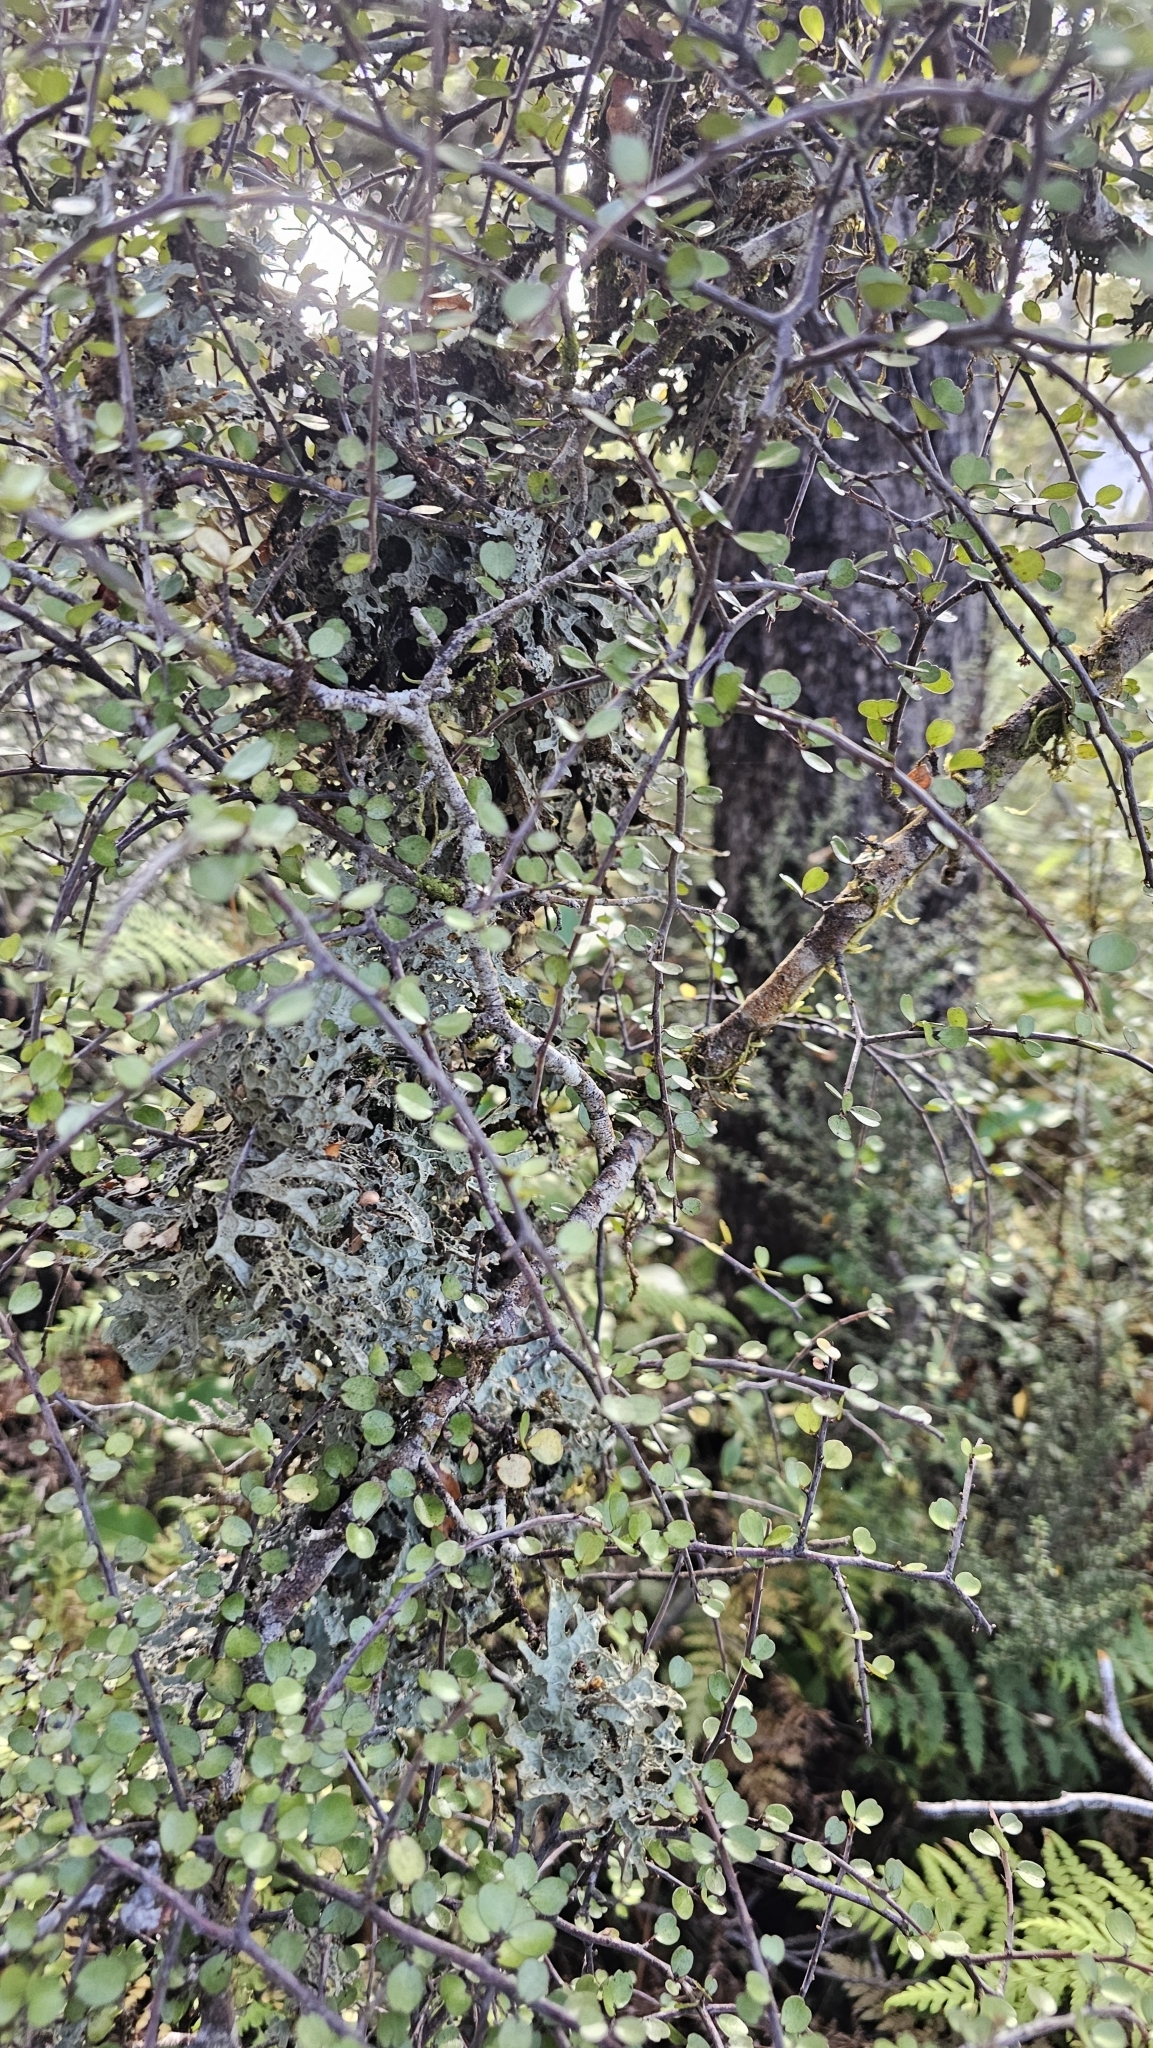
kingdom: Plantae
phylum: Tracheophyta
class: Magnoliopsida
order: Ericales
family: Primulaceae
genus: Myrsine
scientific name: Myrsine divaricata
